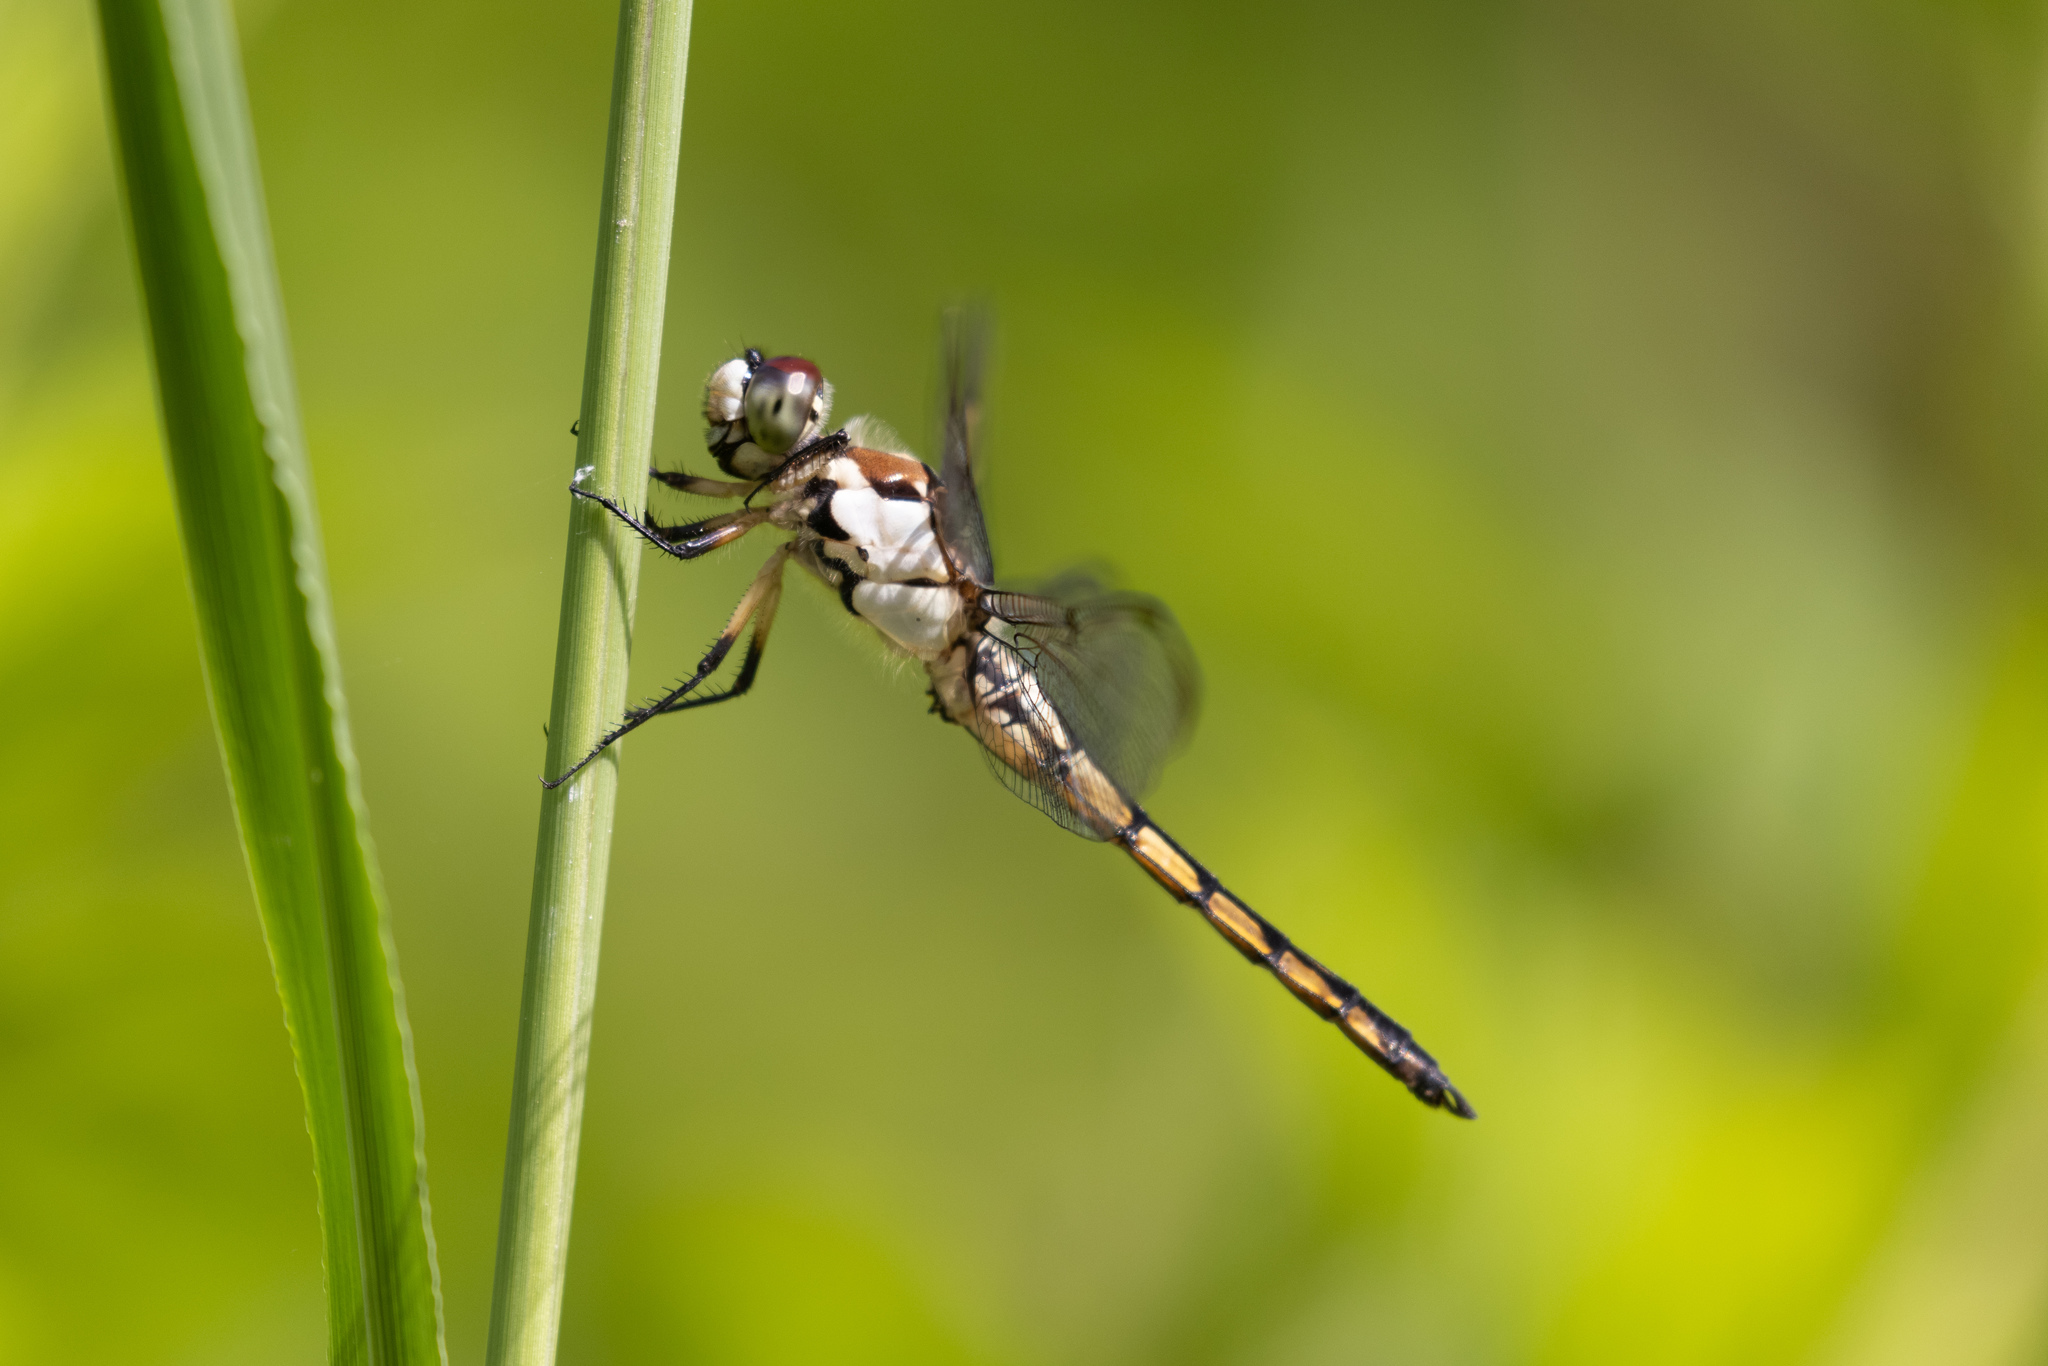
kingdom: Animalia
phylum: Arthropoda
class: Insecta
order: Odonata
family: Libellulidae
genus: Libellula
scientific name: Libellula vibrans
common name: Great blue skimmer
